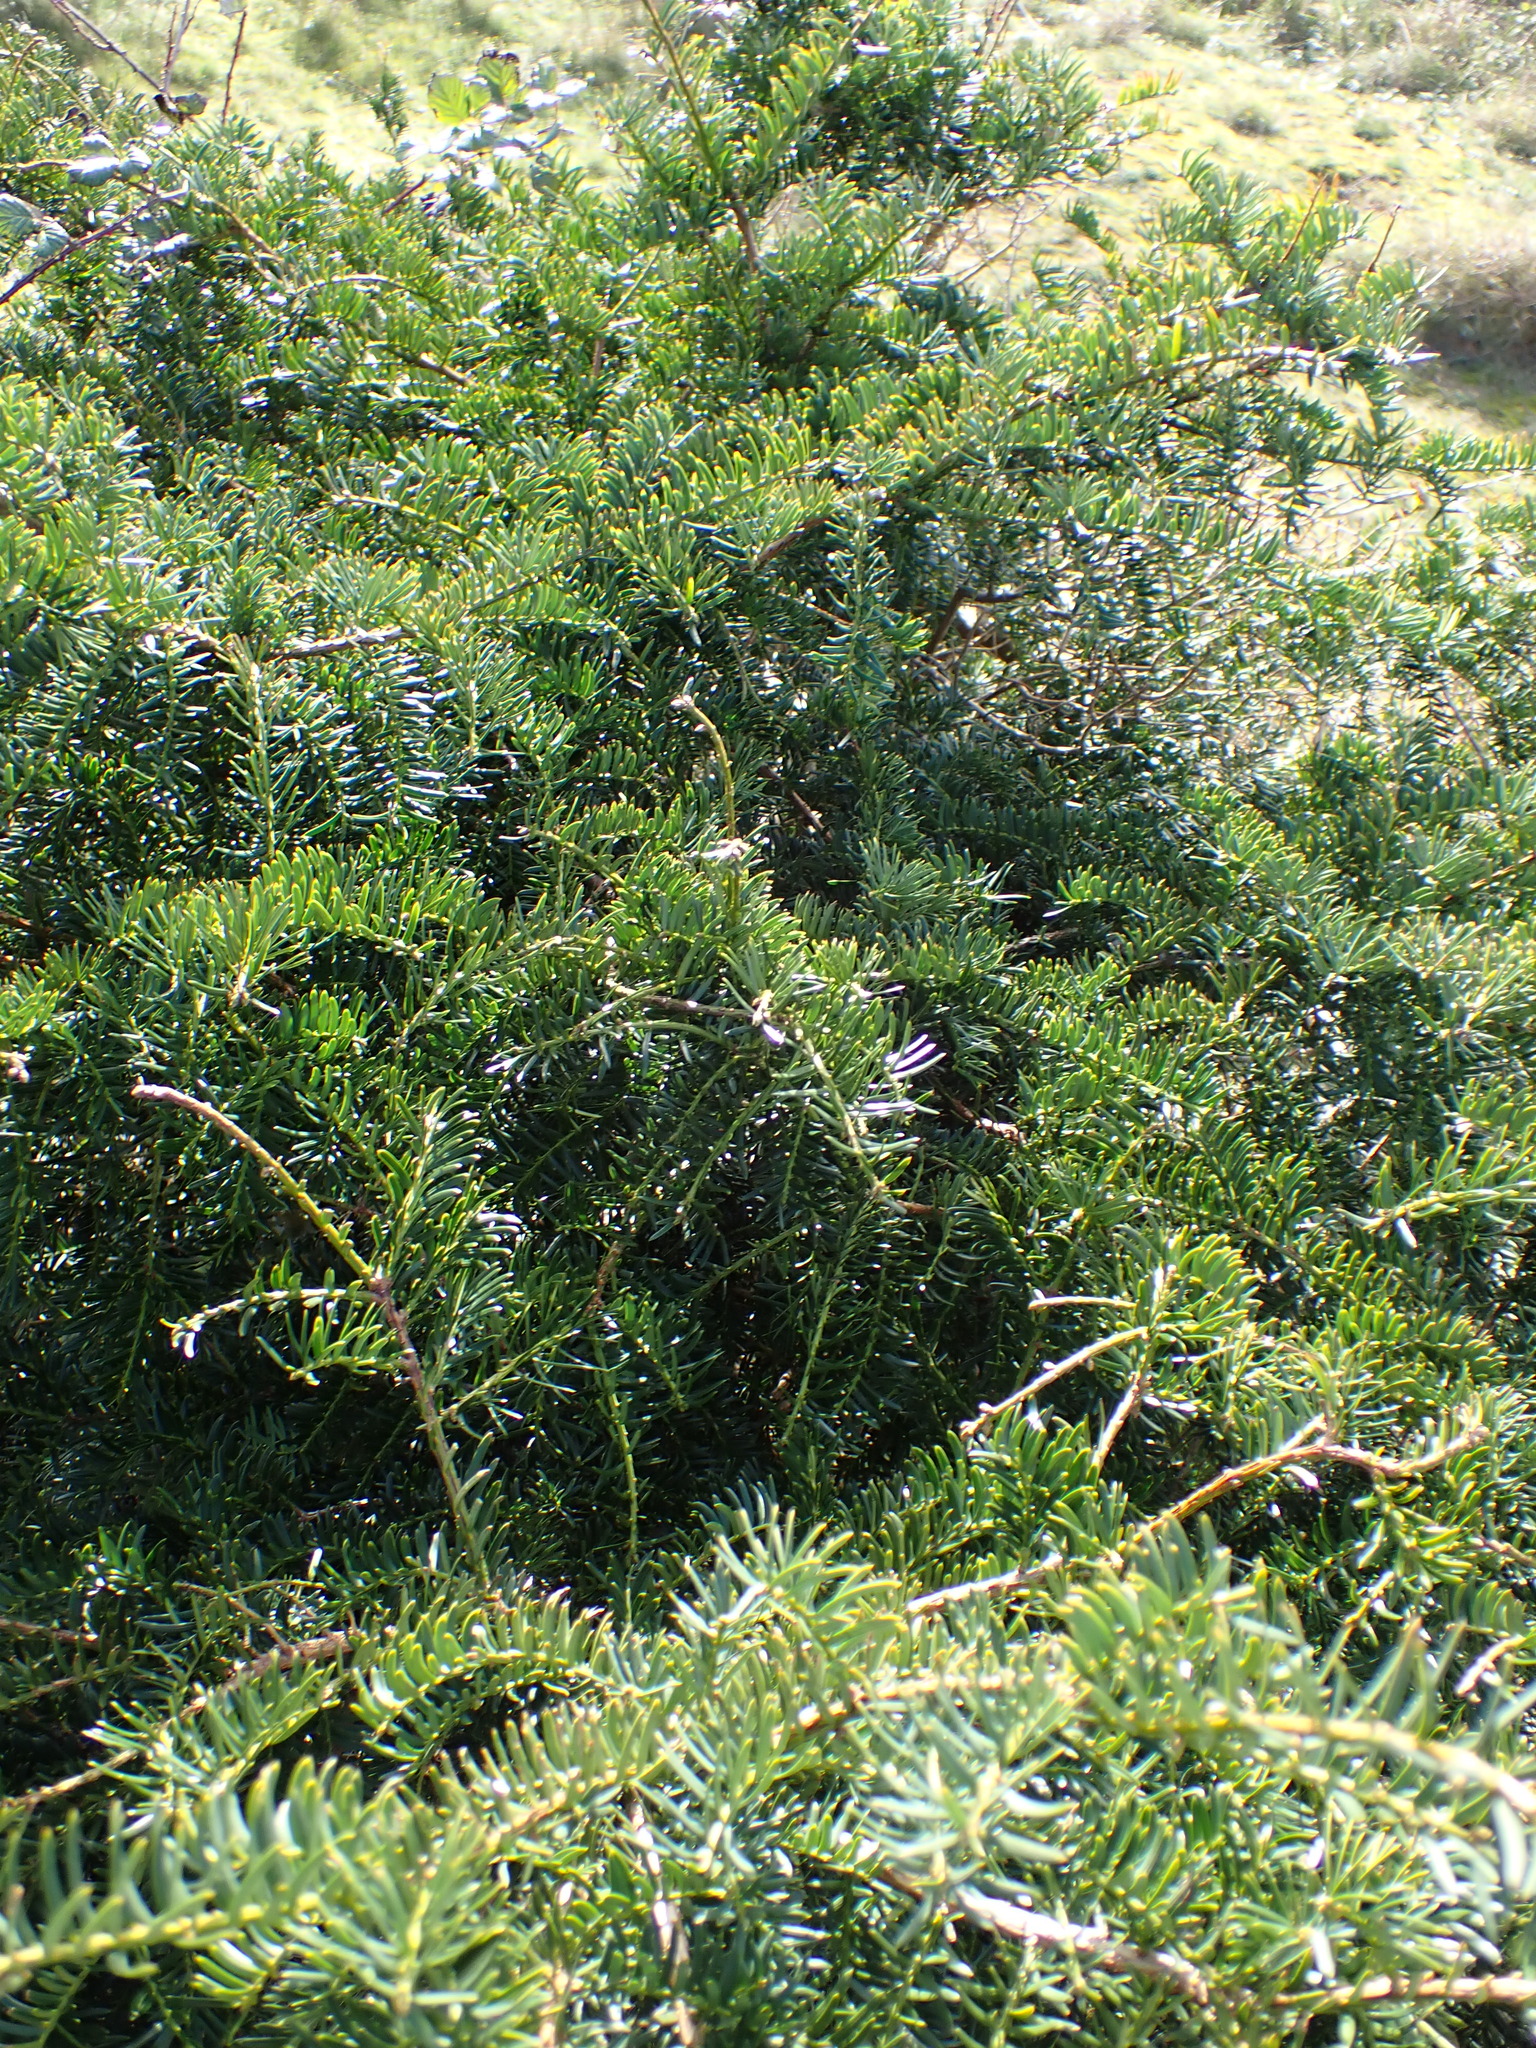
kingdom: Plantae
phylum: Tracheophyta
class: Pinopsida
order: Pinales
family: Taxaceae
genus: Taxus
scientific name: Taxus baccata
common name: Yew
